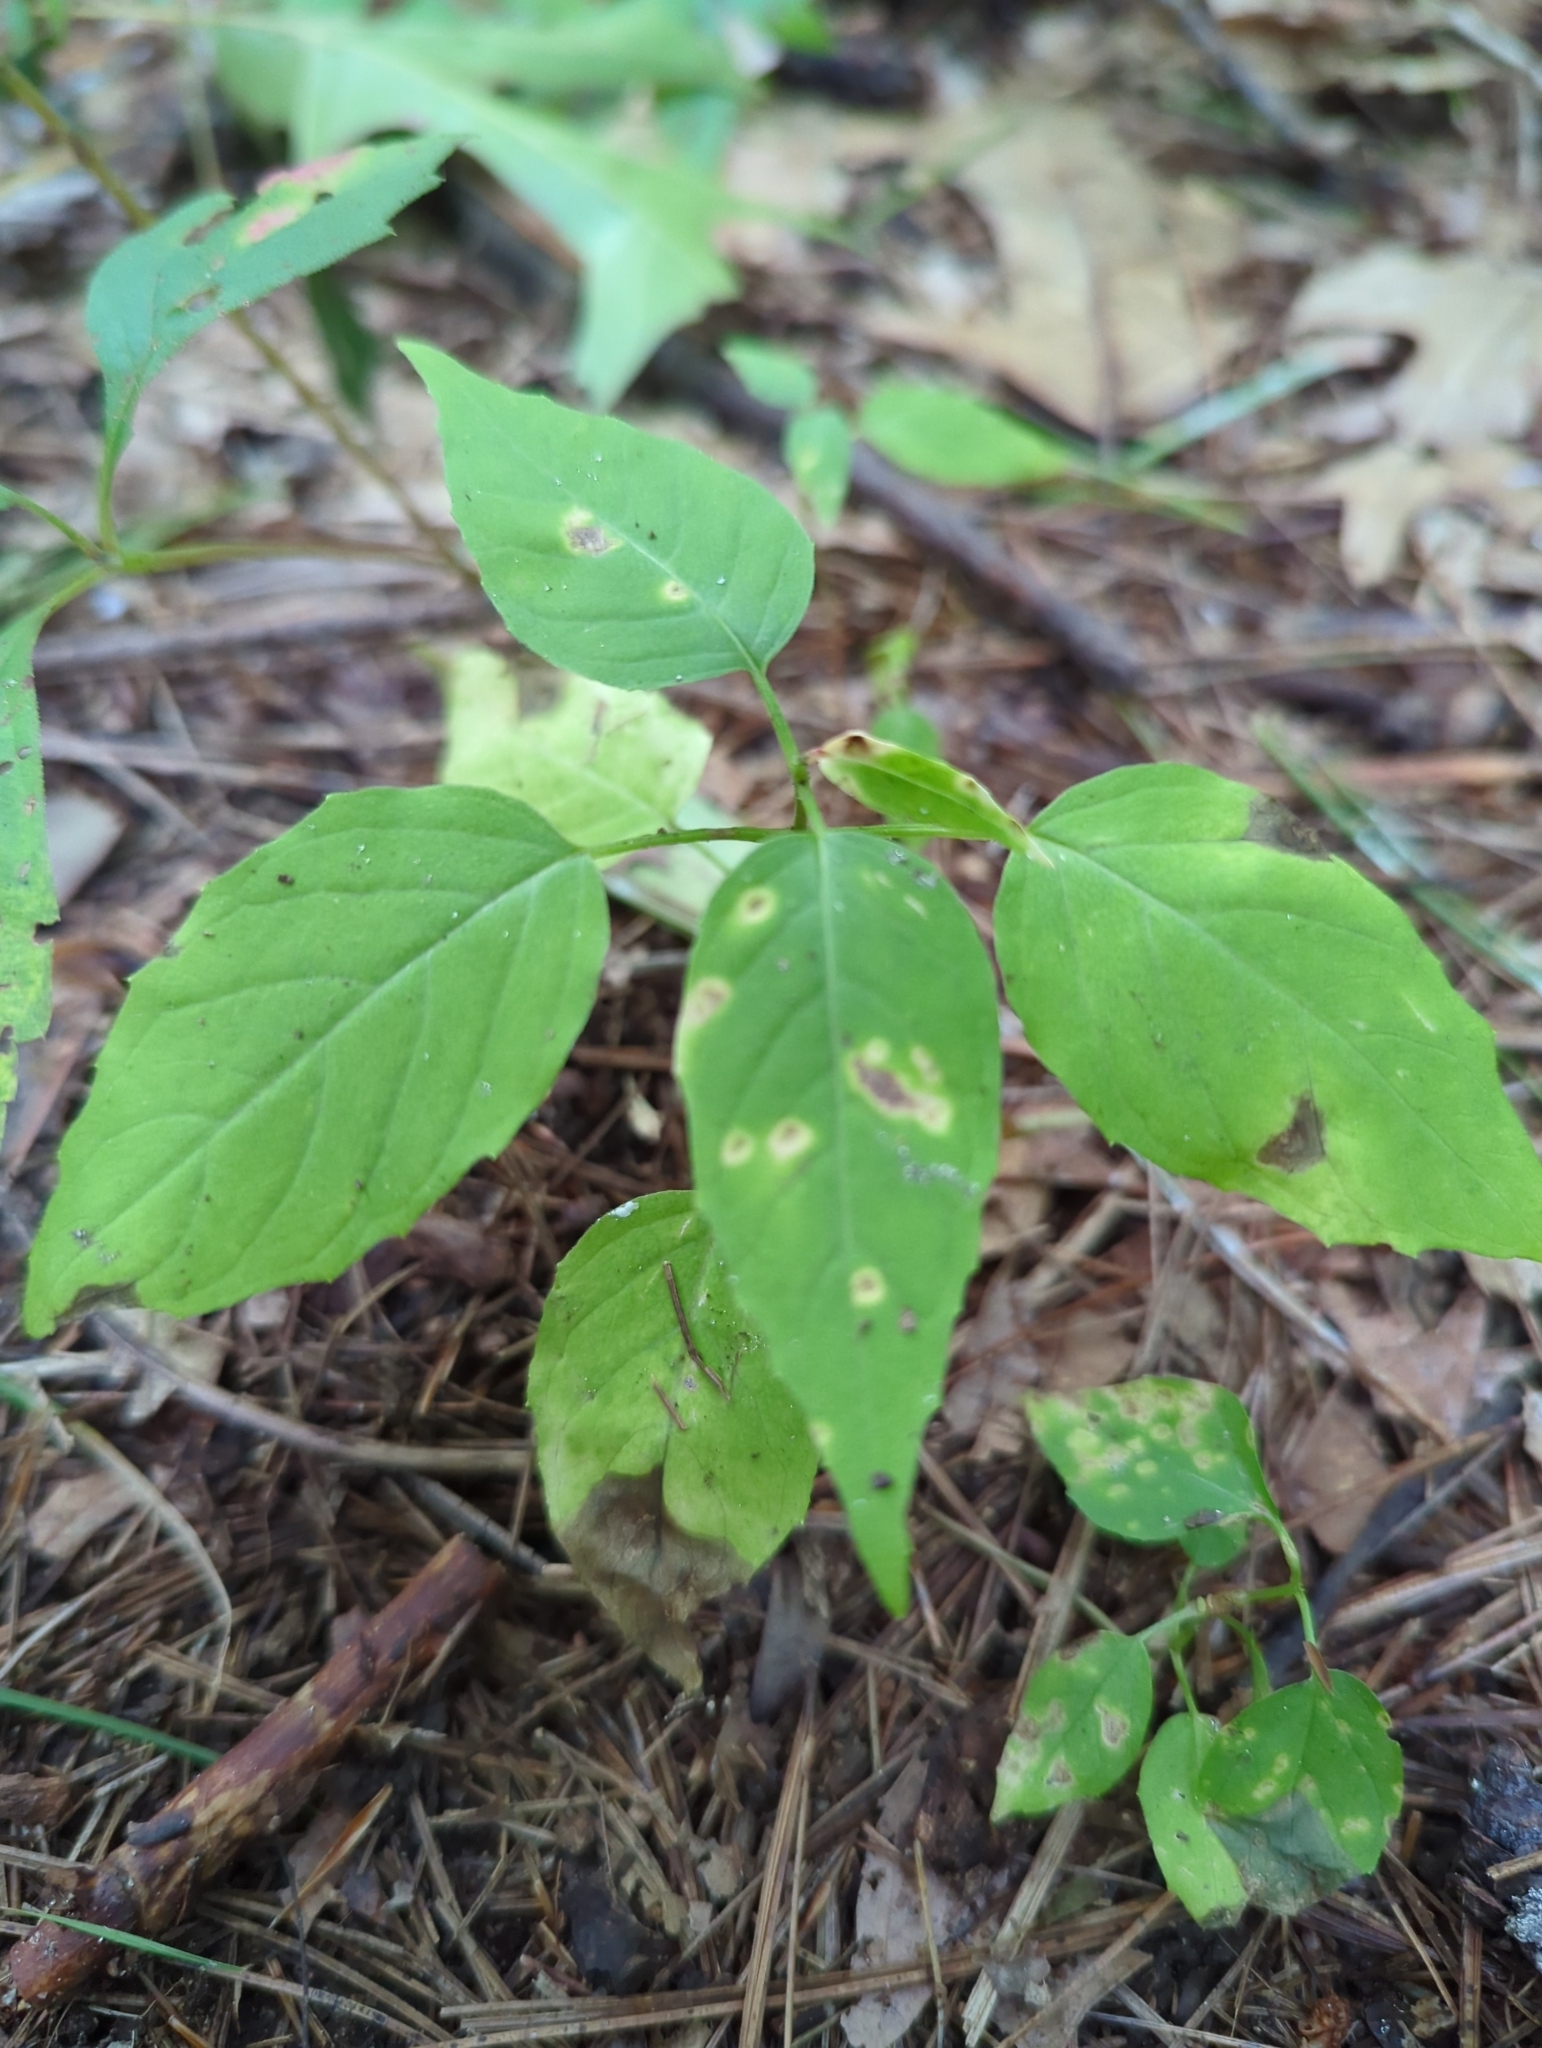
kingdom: Plantae
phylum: Tracheophyta
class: Magnoliopsida
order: Myrtales
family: Onagraceae
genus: Circaea
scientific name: Circaea canadensis
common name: Broad-leaved enchanter's nightshade
